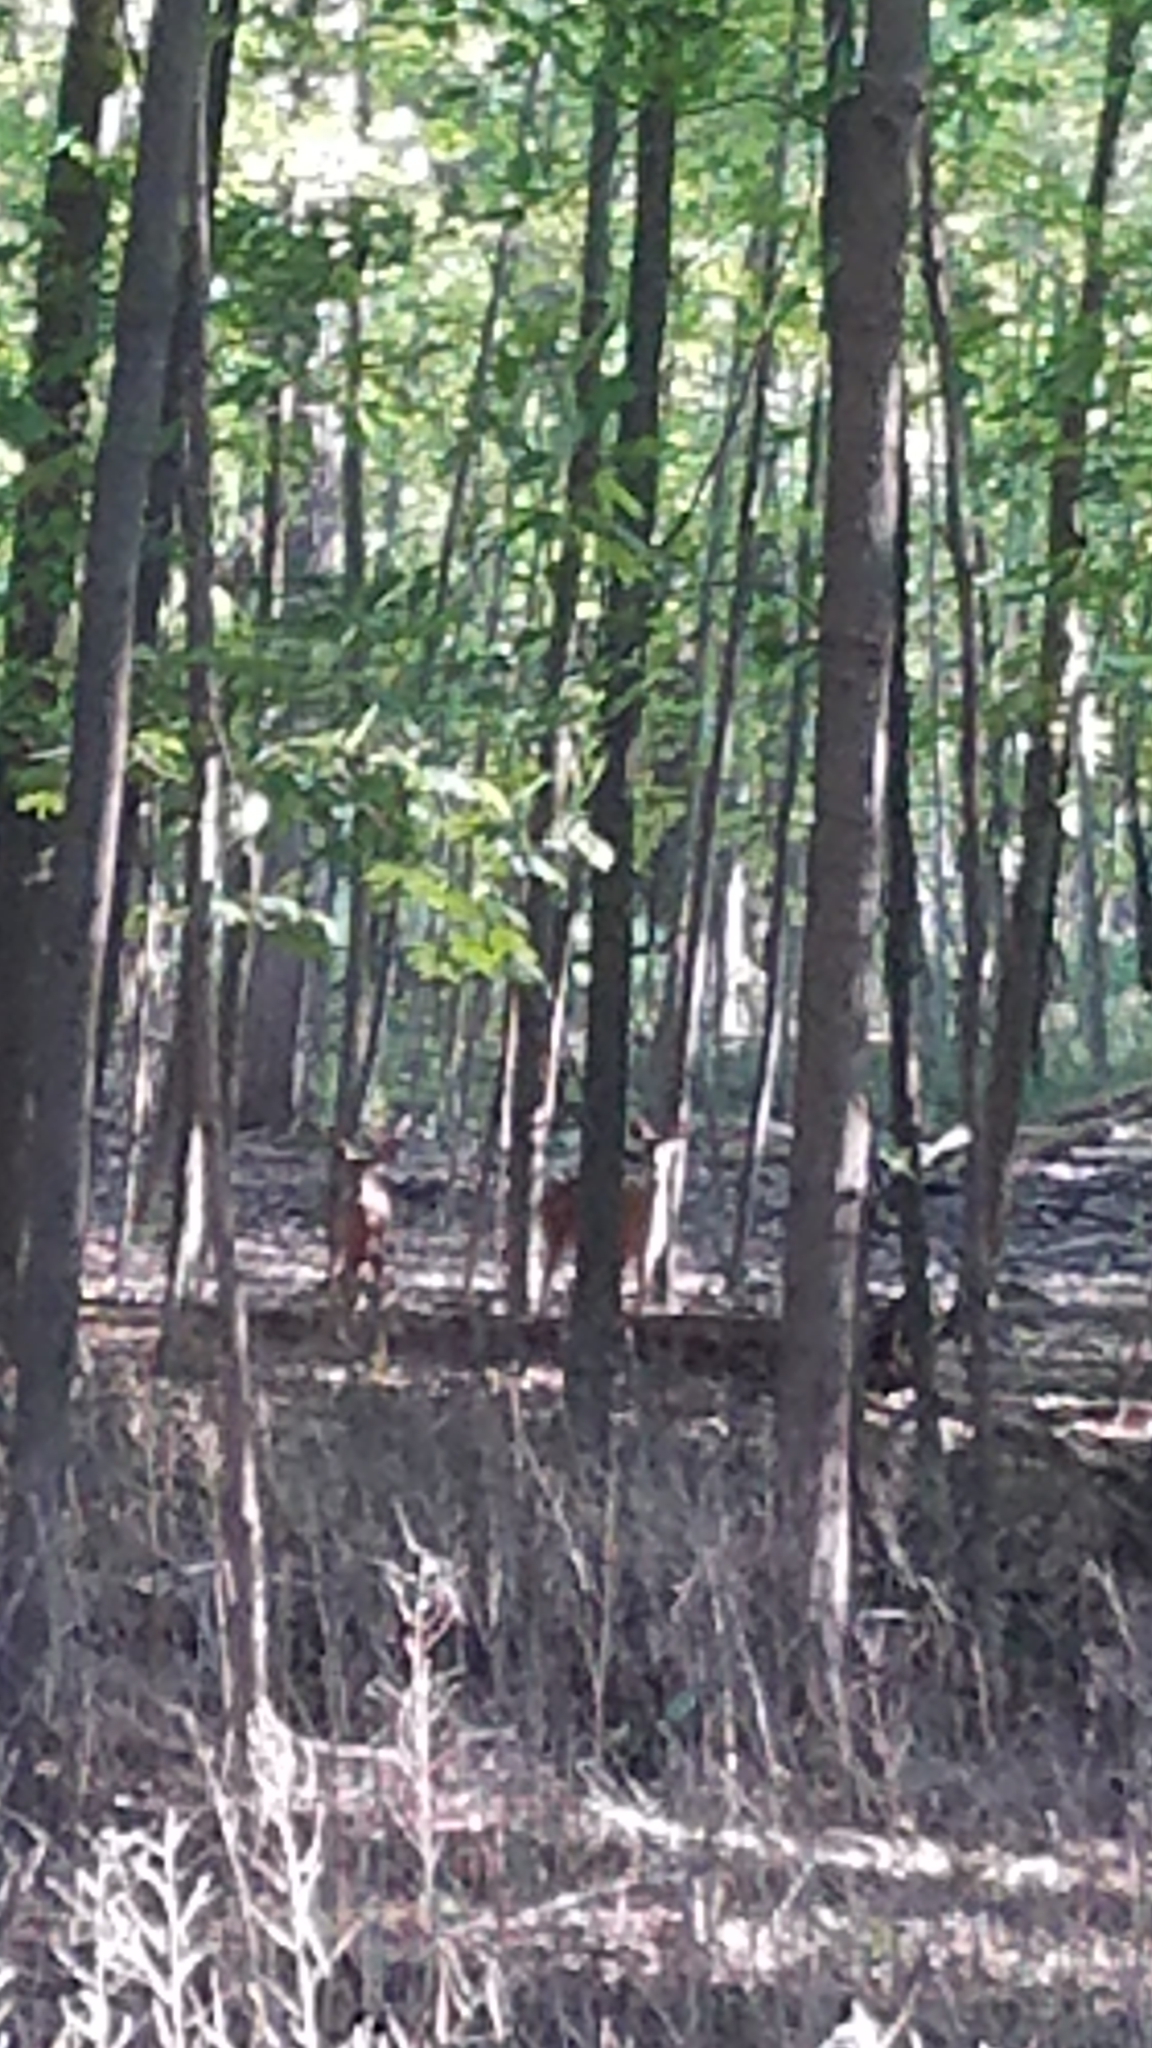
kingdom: Animalia
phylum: Chordata
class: Mammalia
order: Artiodactyla
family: Cervidae
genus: Odocoileus
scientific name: Odocoileus virginianus
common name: White-tailed deer
